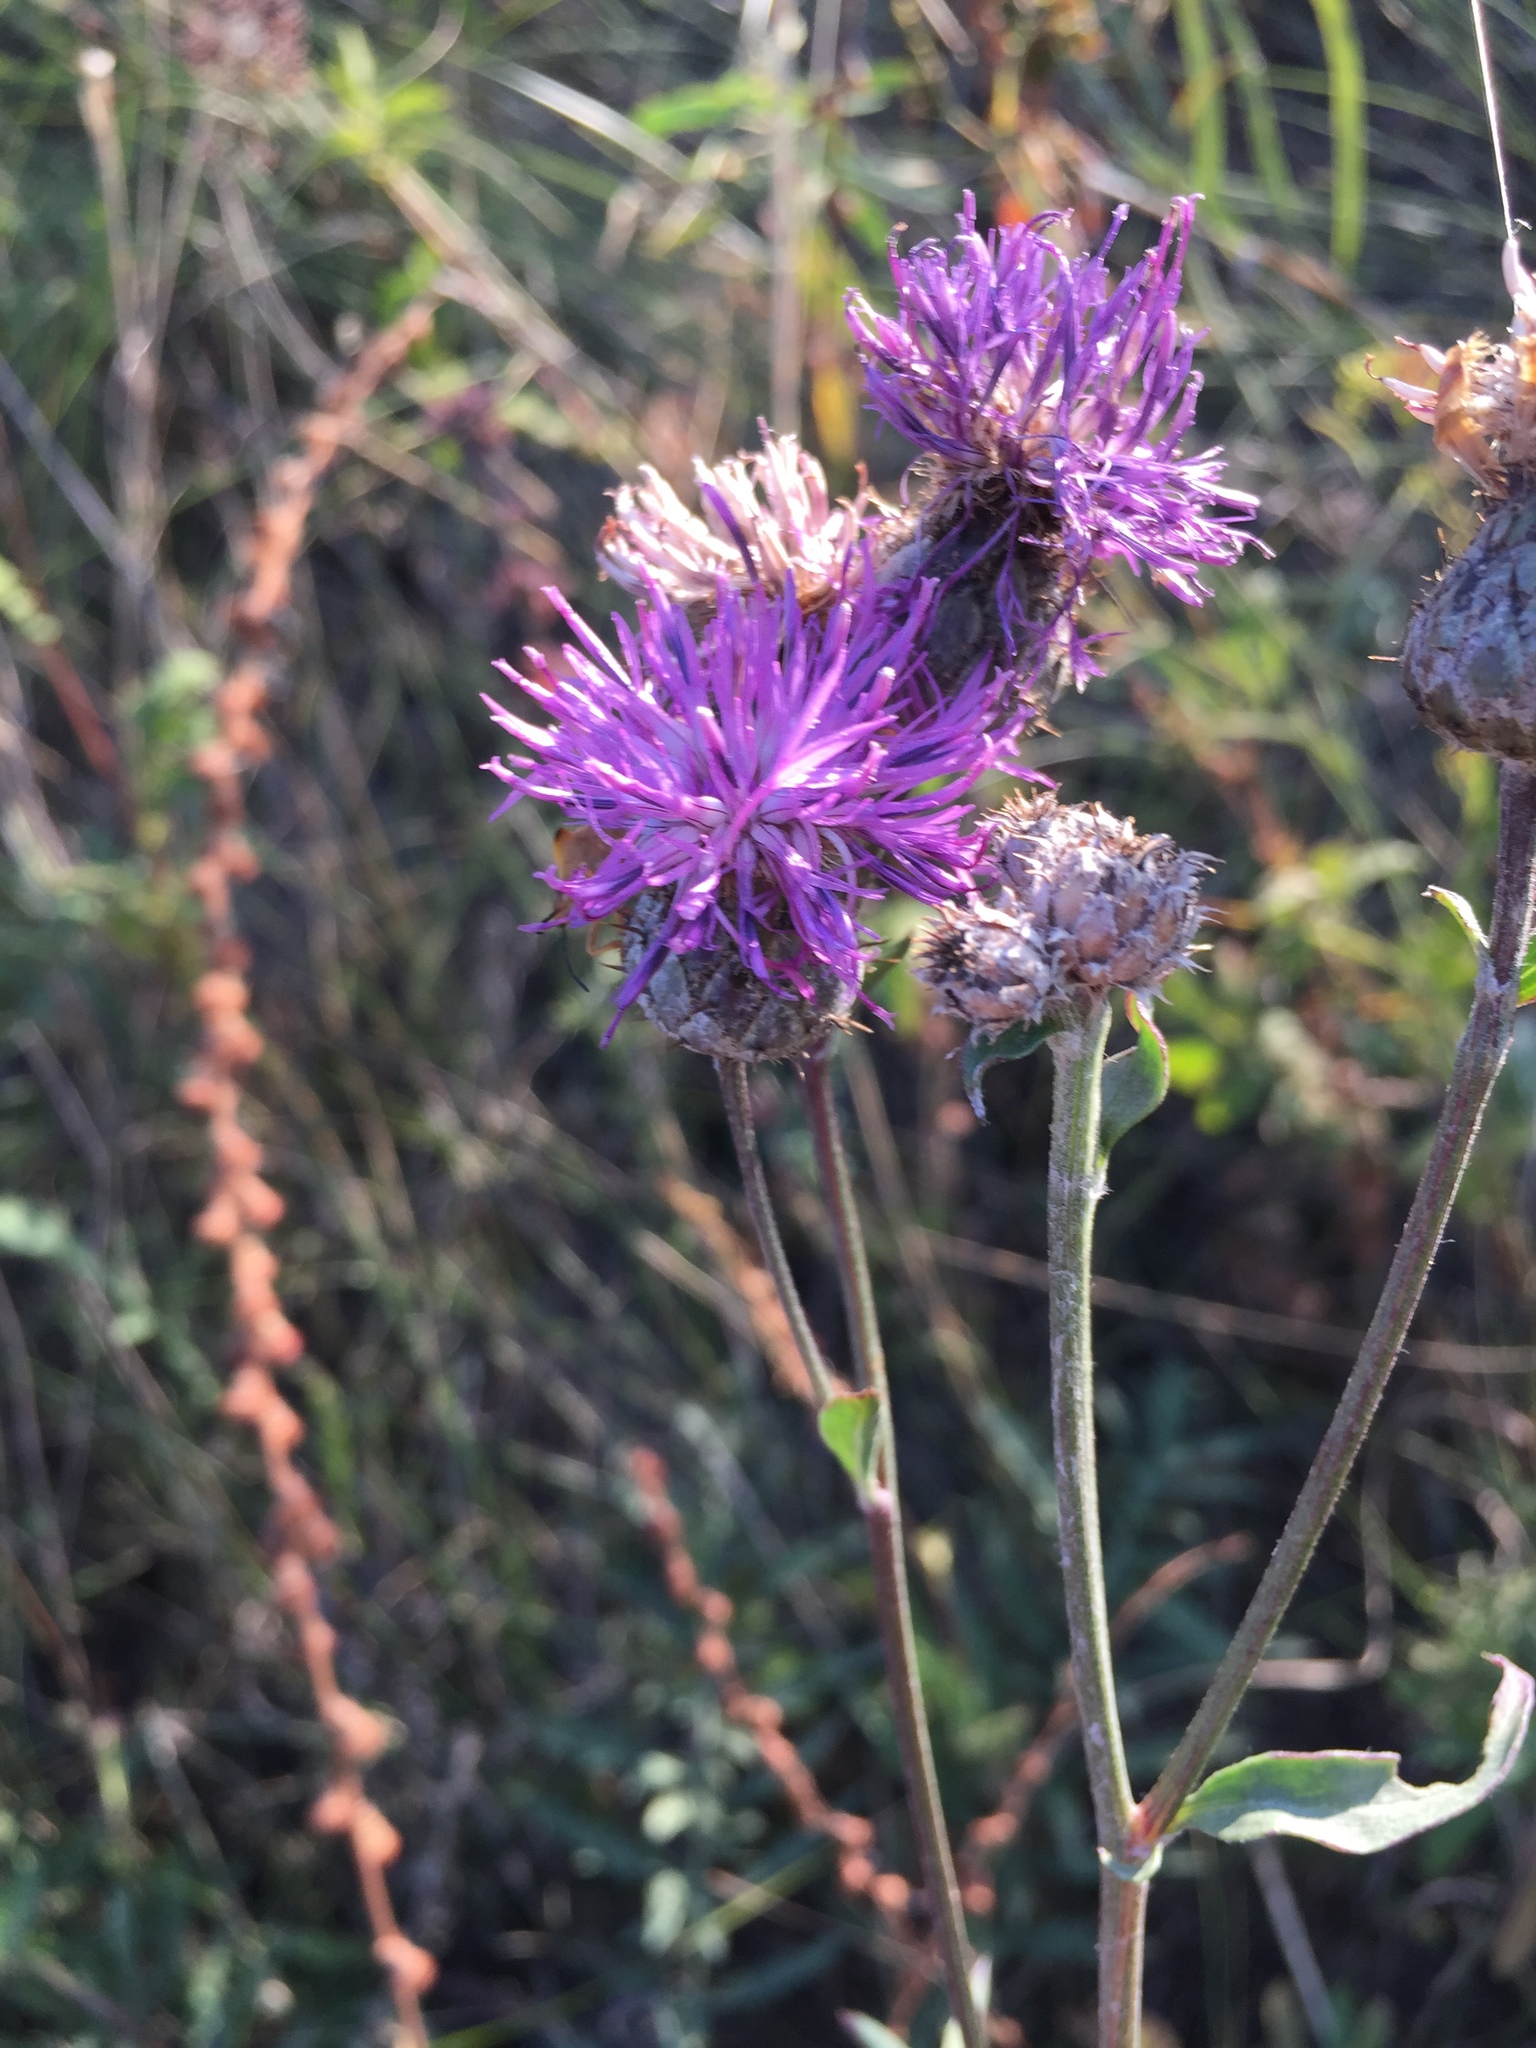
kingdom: Plantae
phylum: Tracheophyta
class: Magnoliopsida
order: Asterales
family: Asteraceae
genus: Centaurea
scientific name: Centaurea scabiosa
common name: Greater knapweed
